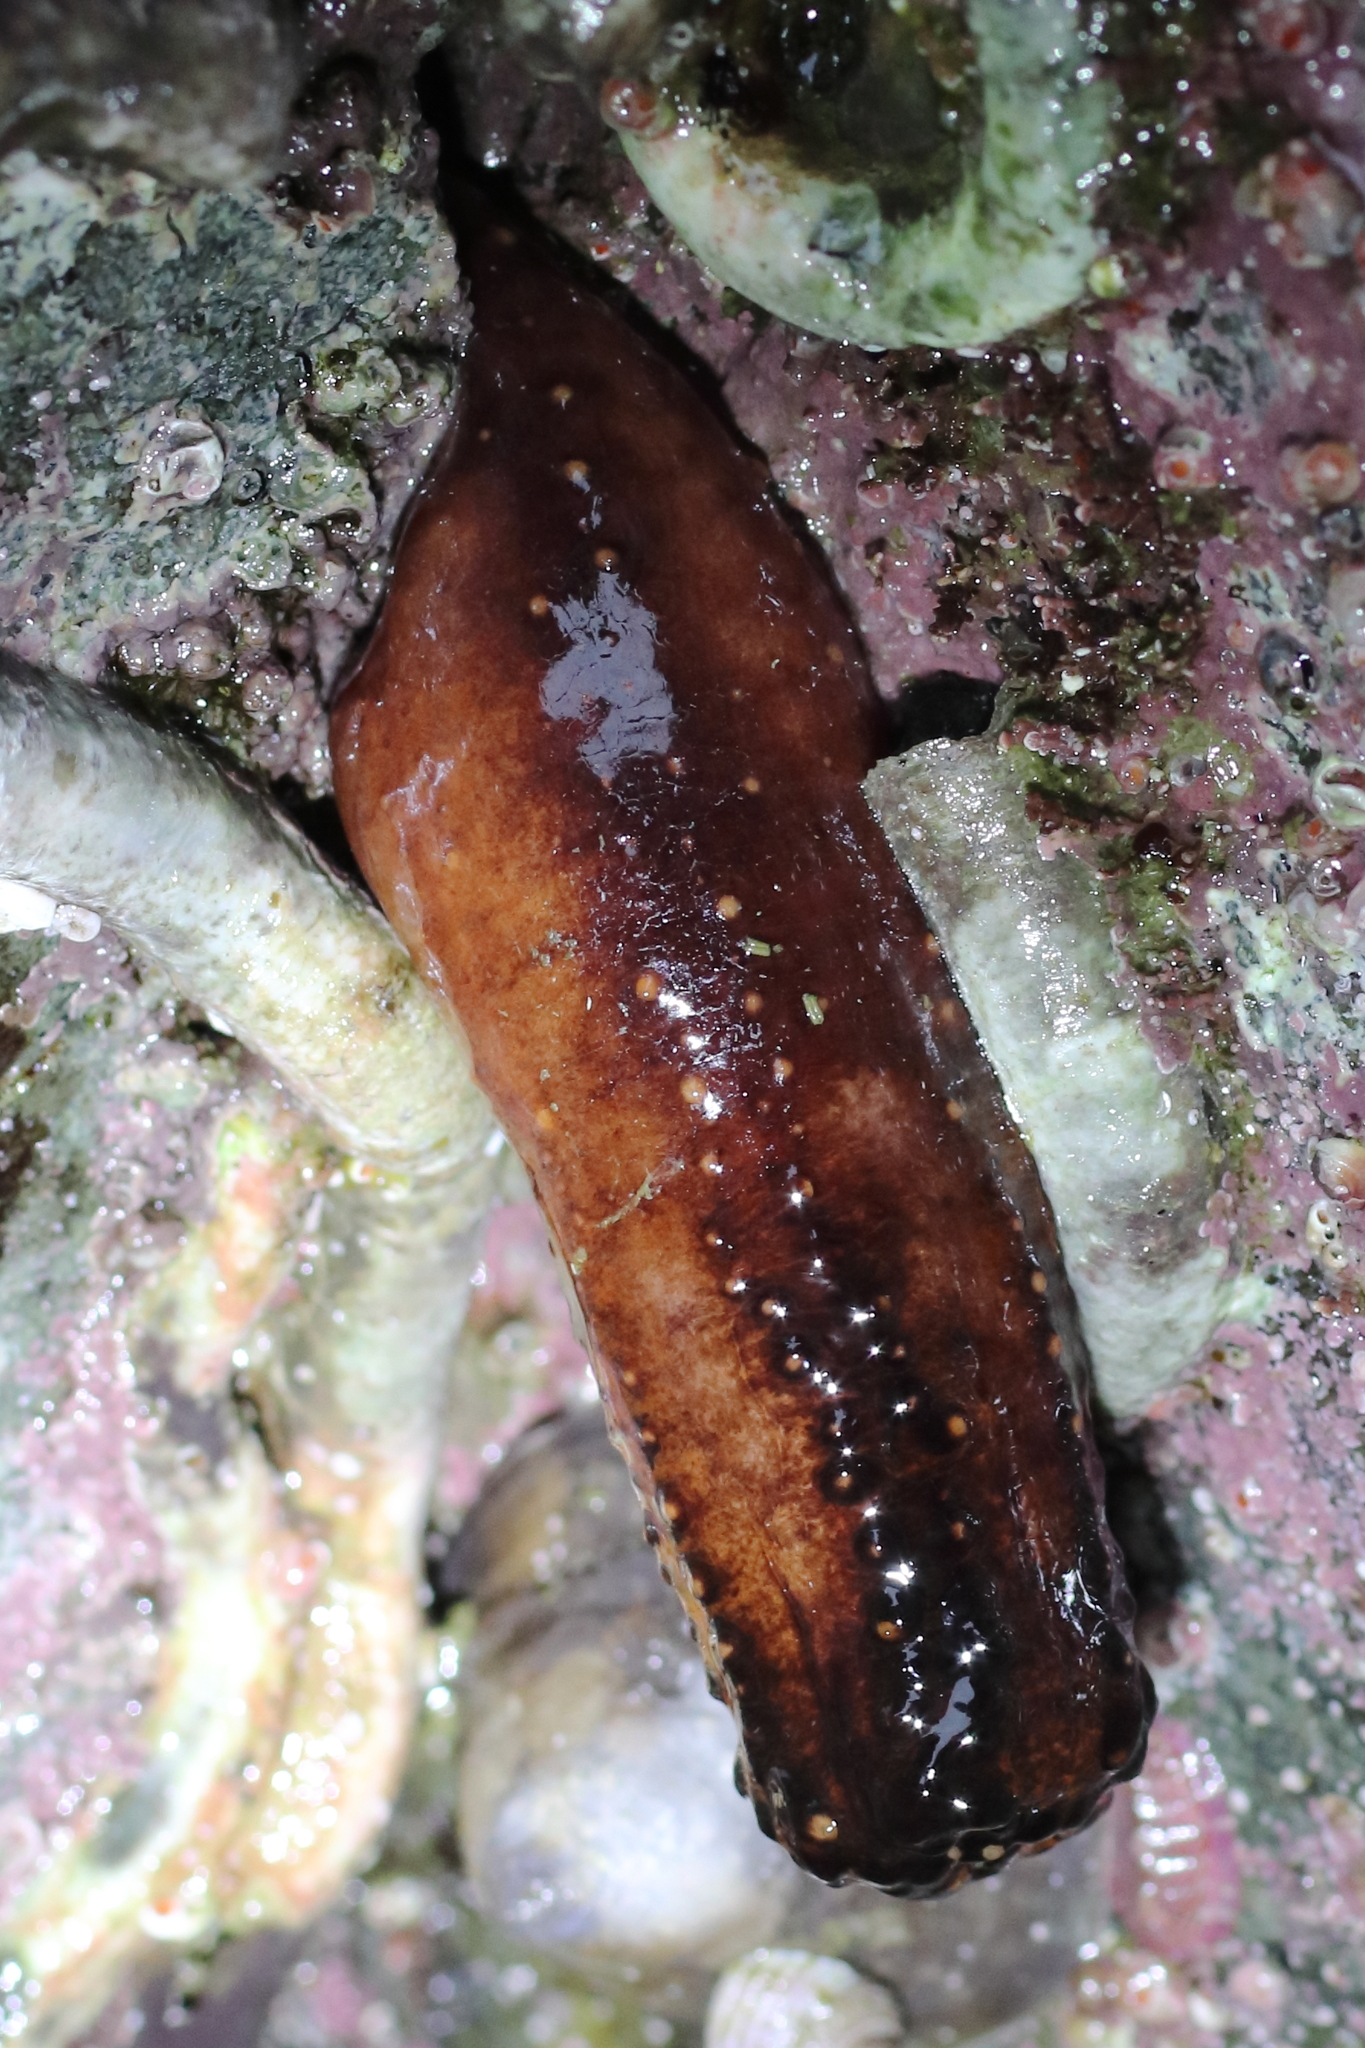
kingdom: Animalia
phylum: Echinodermata
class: Holothuroidea
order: Dendrochirotida
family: Cucumariidae
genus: Cucumaria
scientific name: Cucumaria miniata
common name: Orange sea cucumber
